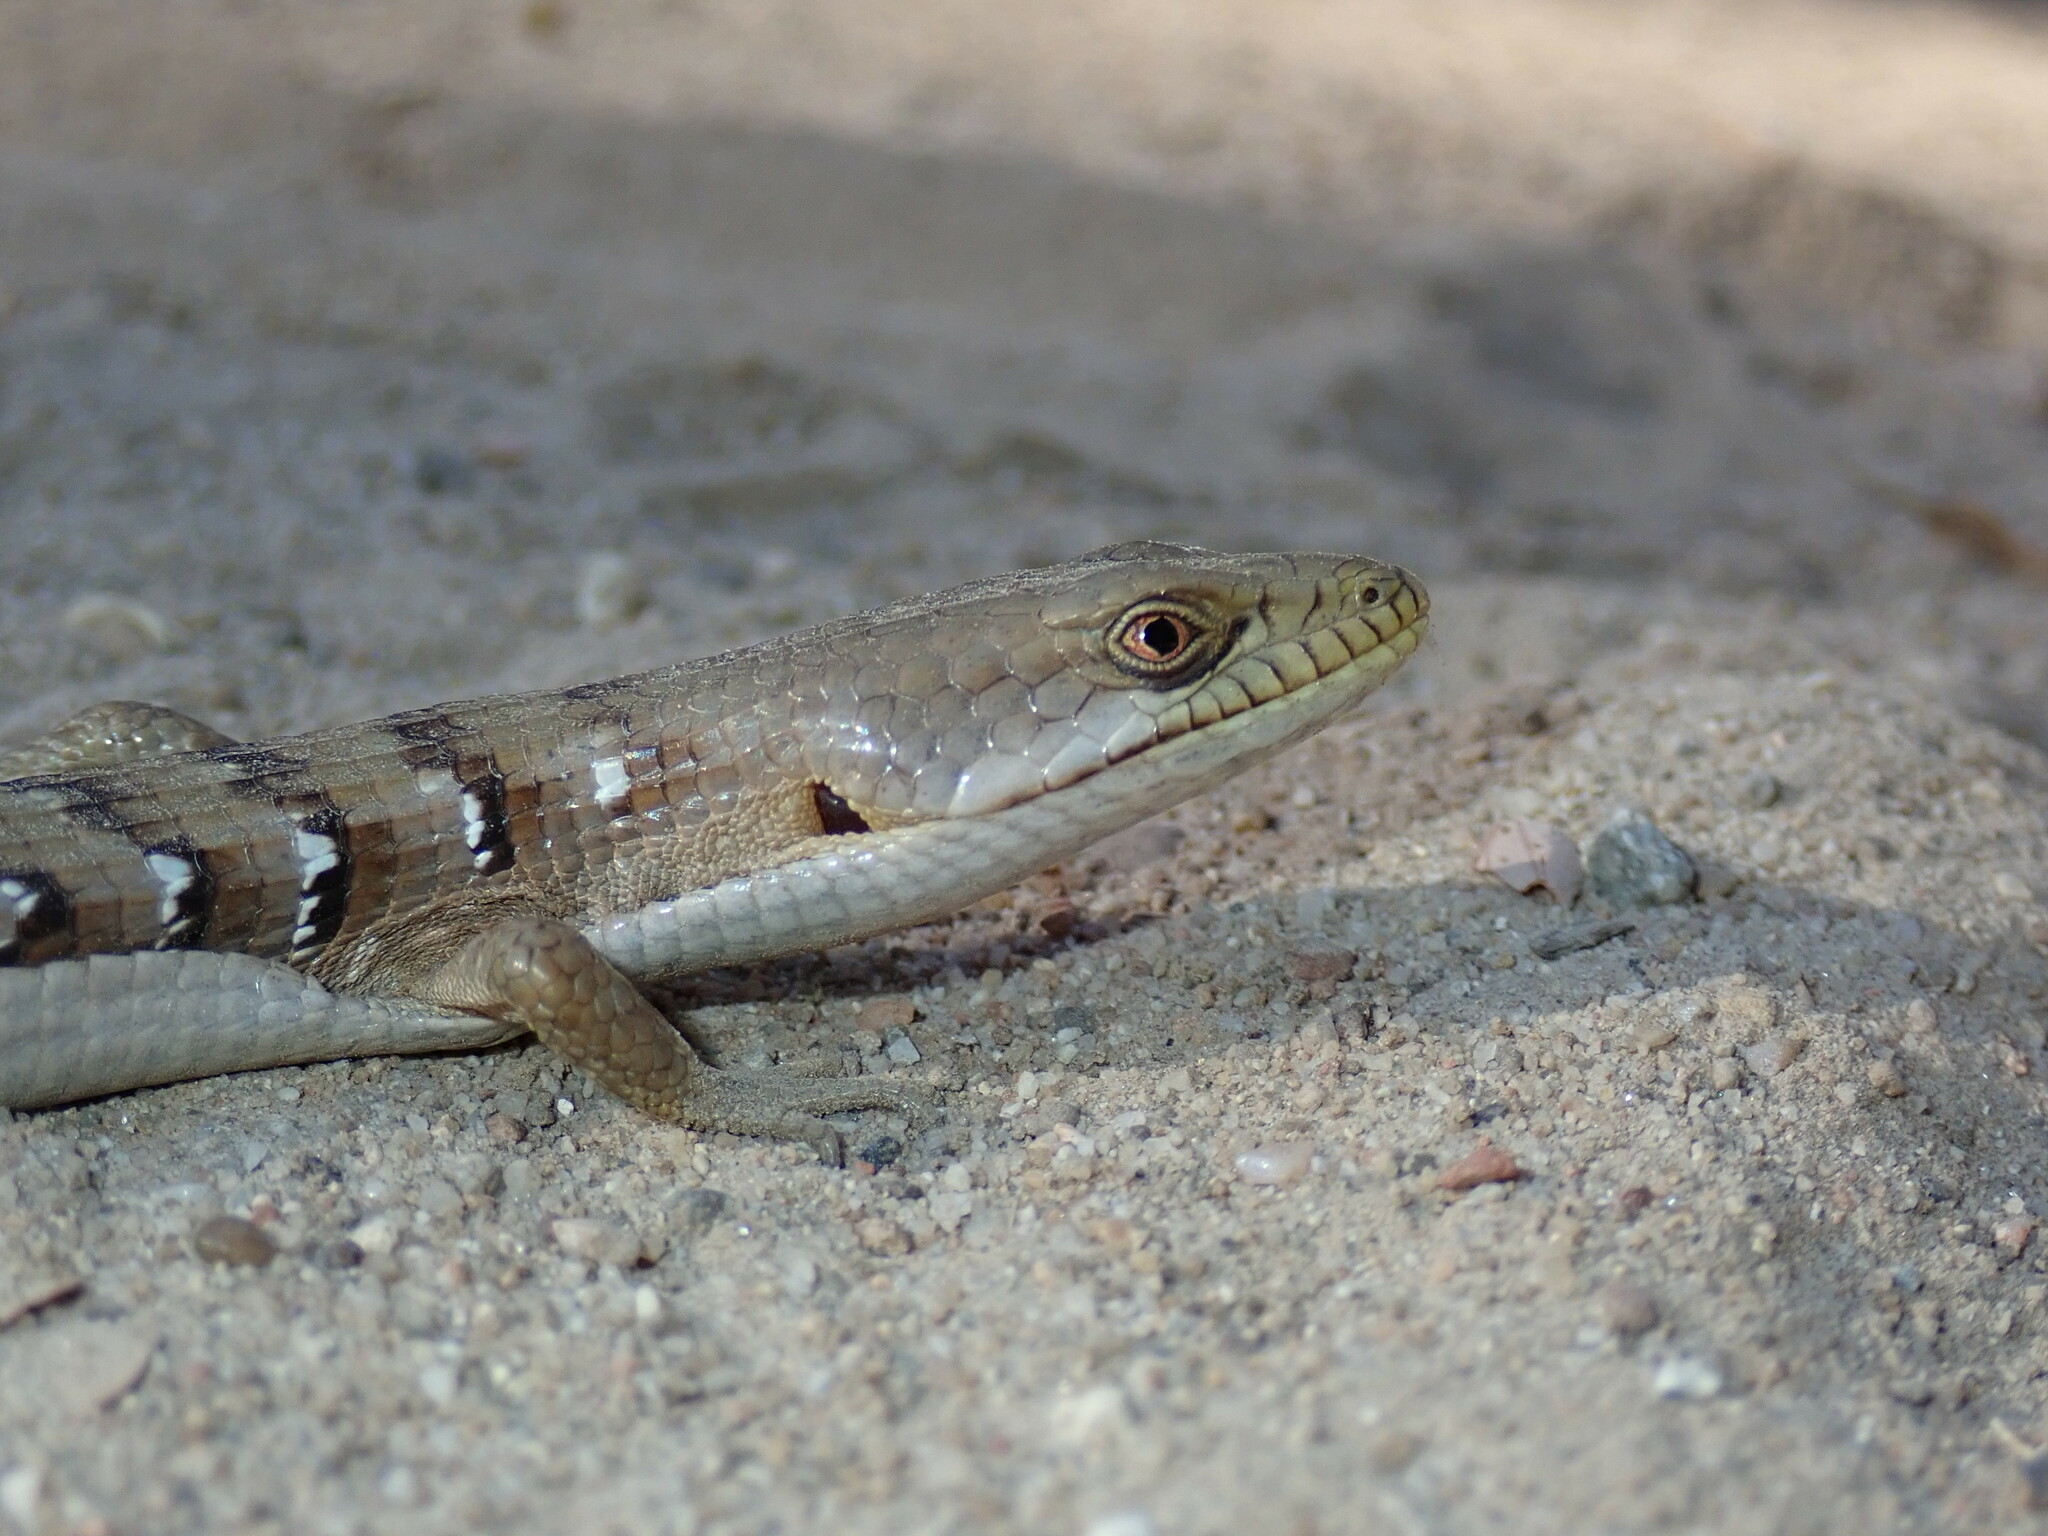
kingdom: Animalia
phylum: Chordata
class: Squamata
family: Anguidae
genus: Elgaria
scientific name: Elgaria multicarinata
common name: Southern alligator lizard
